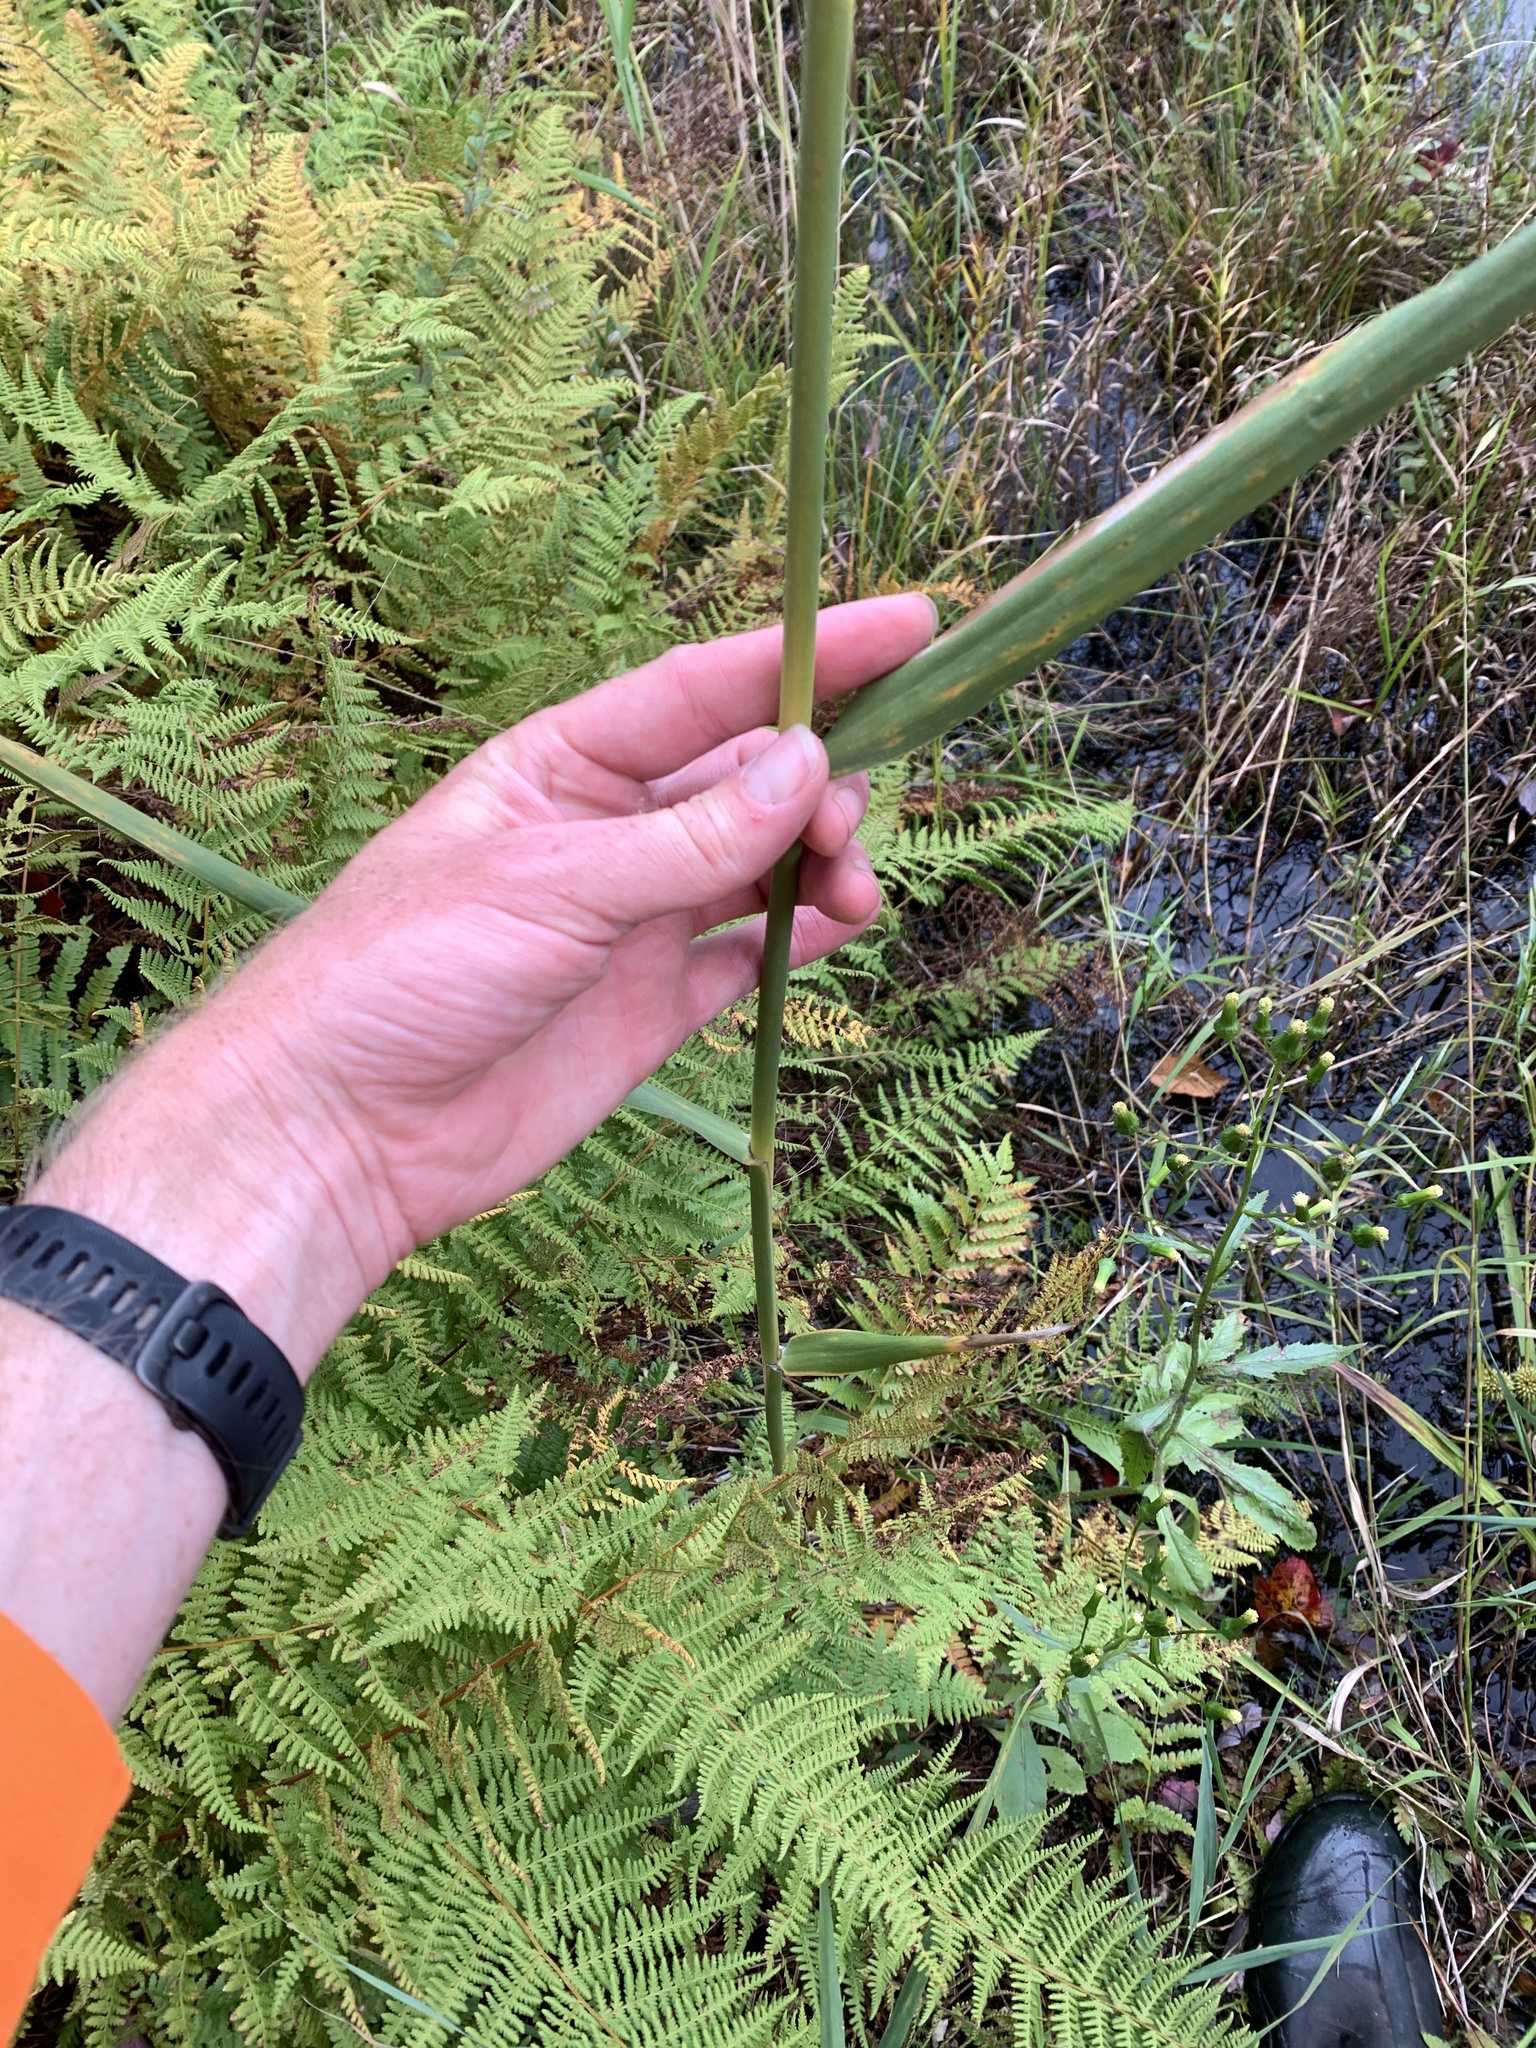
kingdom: Plantae
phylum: Tracheophyta
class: Liliopsida
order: Poales
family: Poaceae
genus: Phragmites
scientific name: Phragmites australis
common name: Common reed
